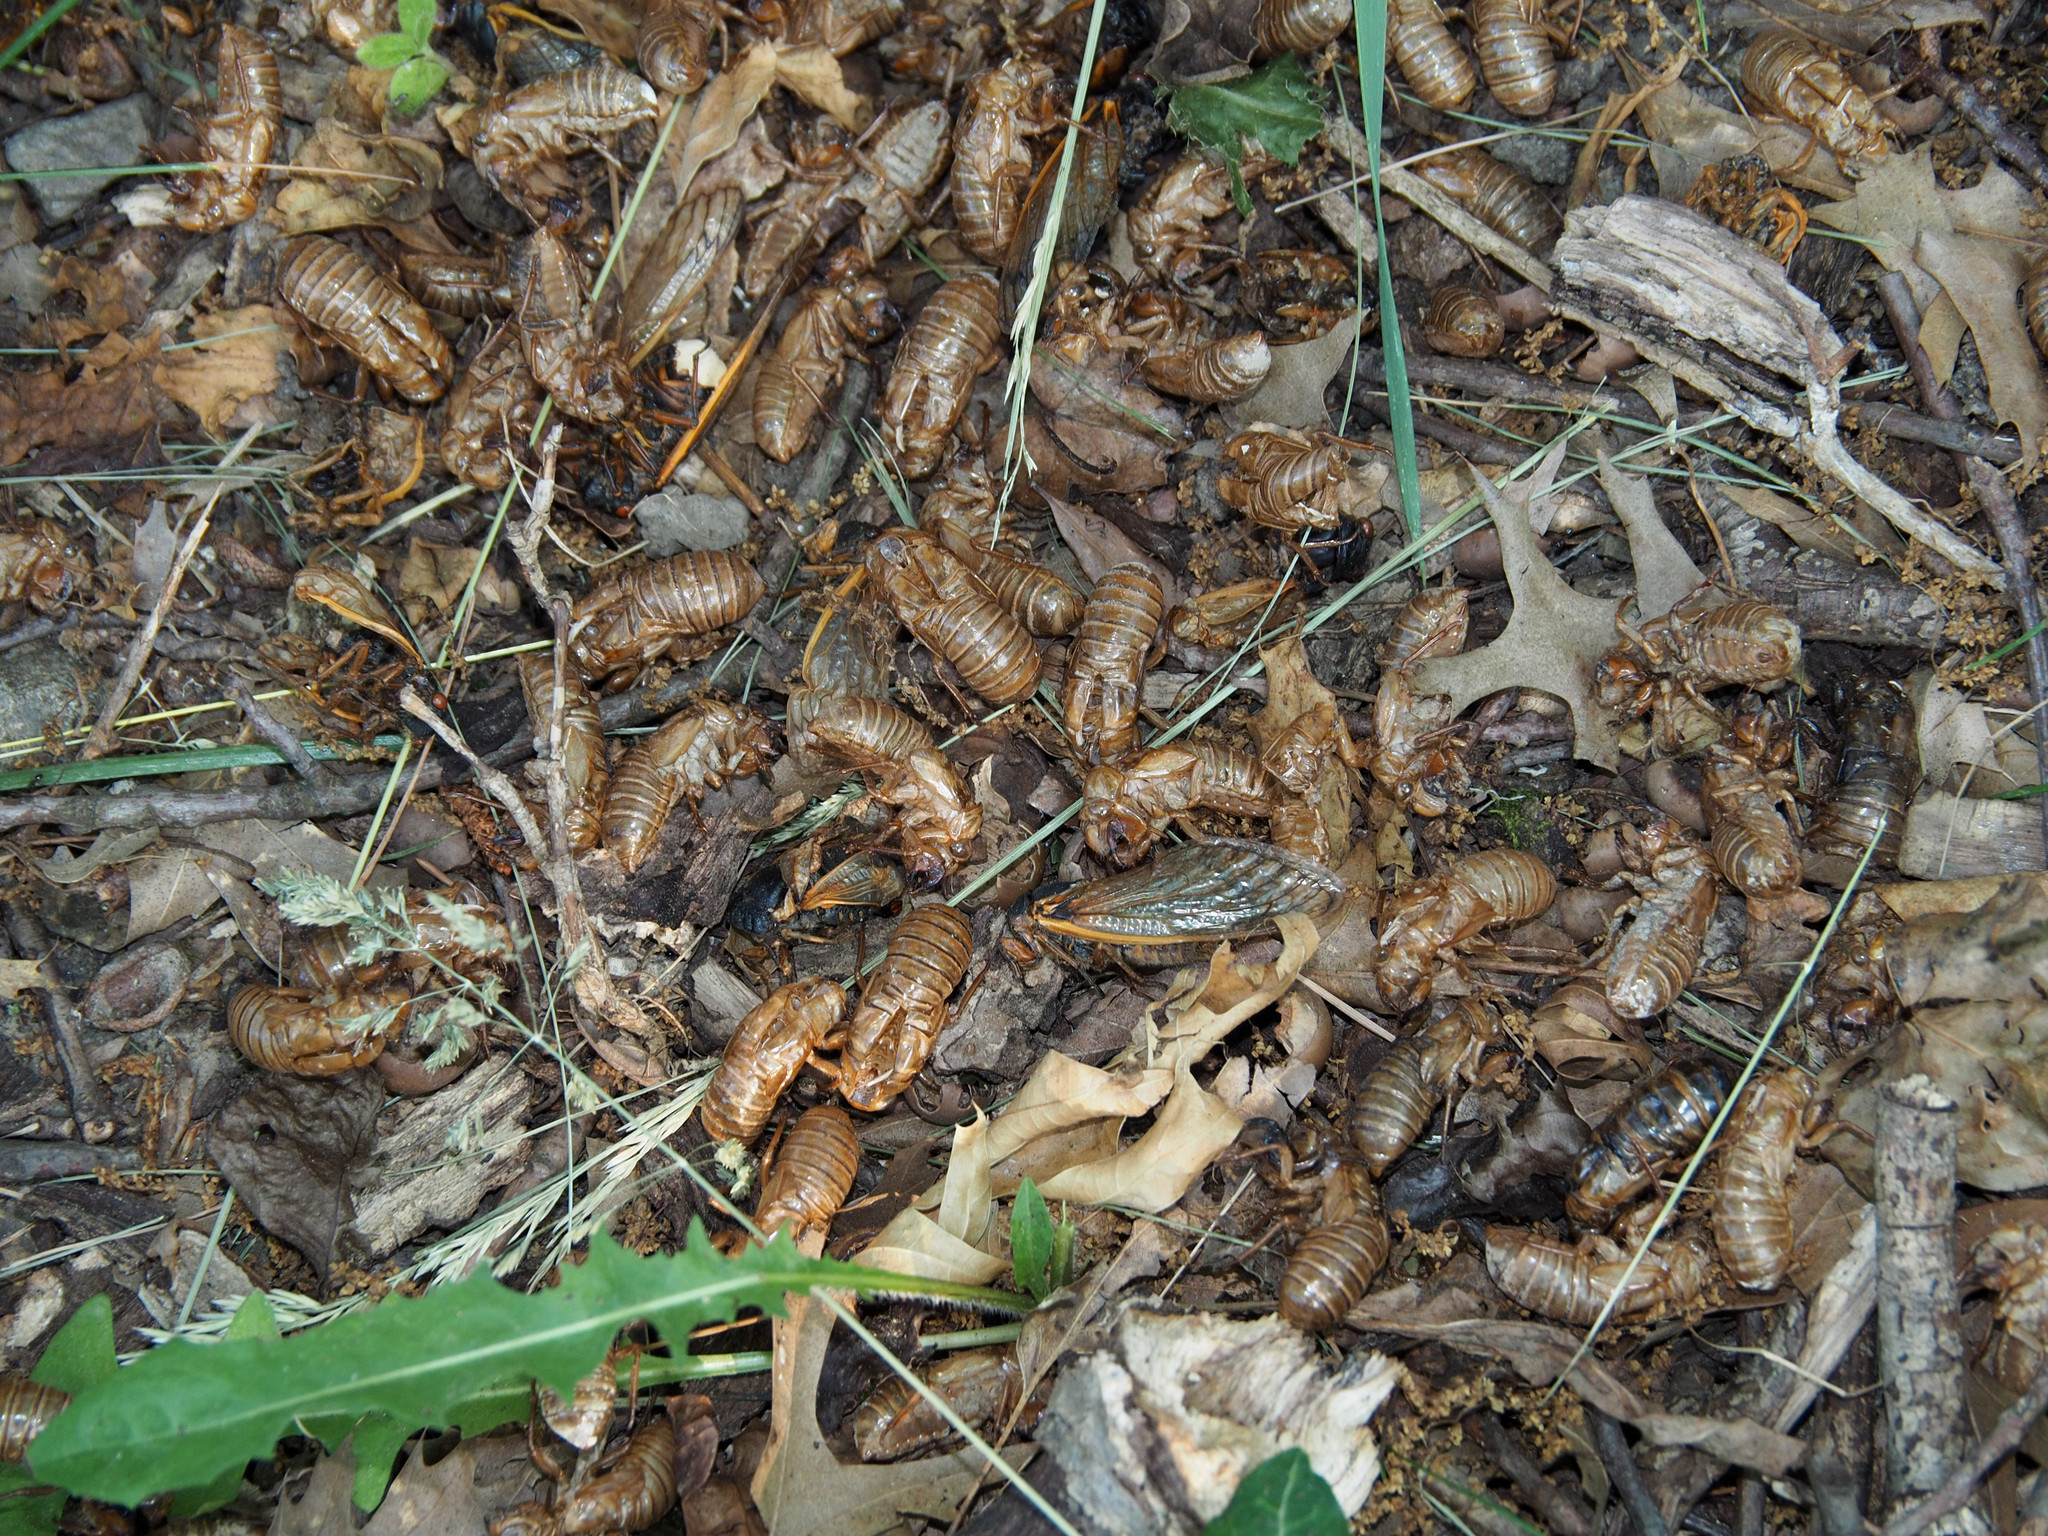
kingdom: Animalia
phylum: Arthropoda
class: Insecta
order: Hemiptera
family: Cicadidae
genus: Magicicada
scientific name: Magicicada
